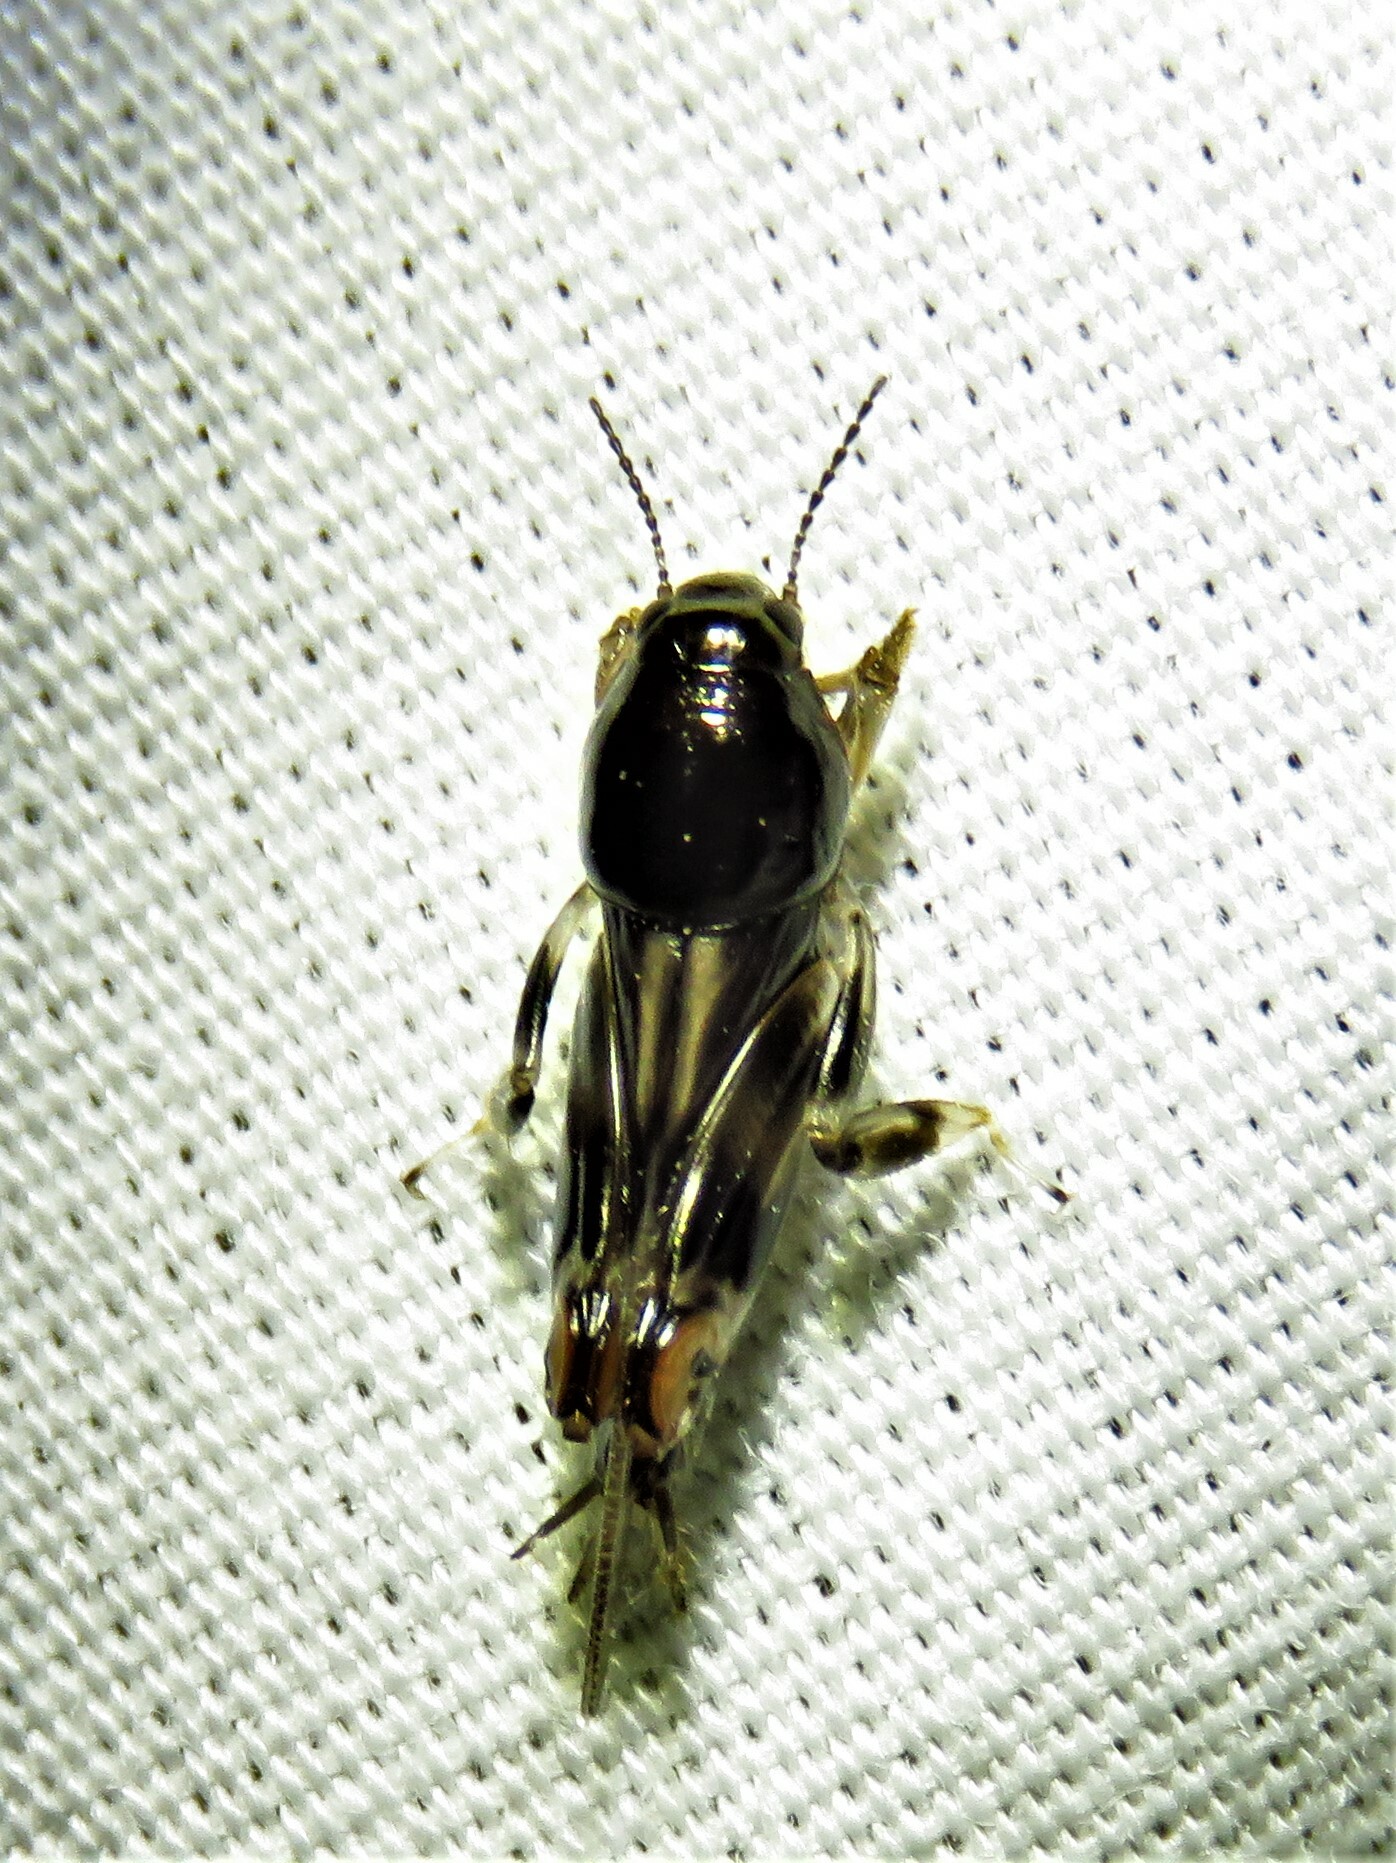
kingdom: Animalia
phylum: Arthropoda
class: Insecta
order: Orthoptera
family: Tridactylidae
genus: Neotridactylus
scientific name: Neotridactylus apicialis
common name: Larger pygmy locust
